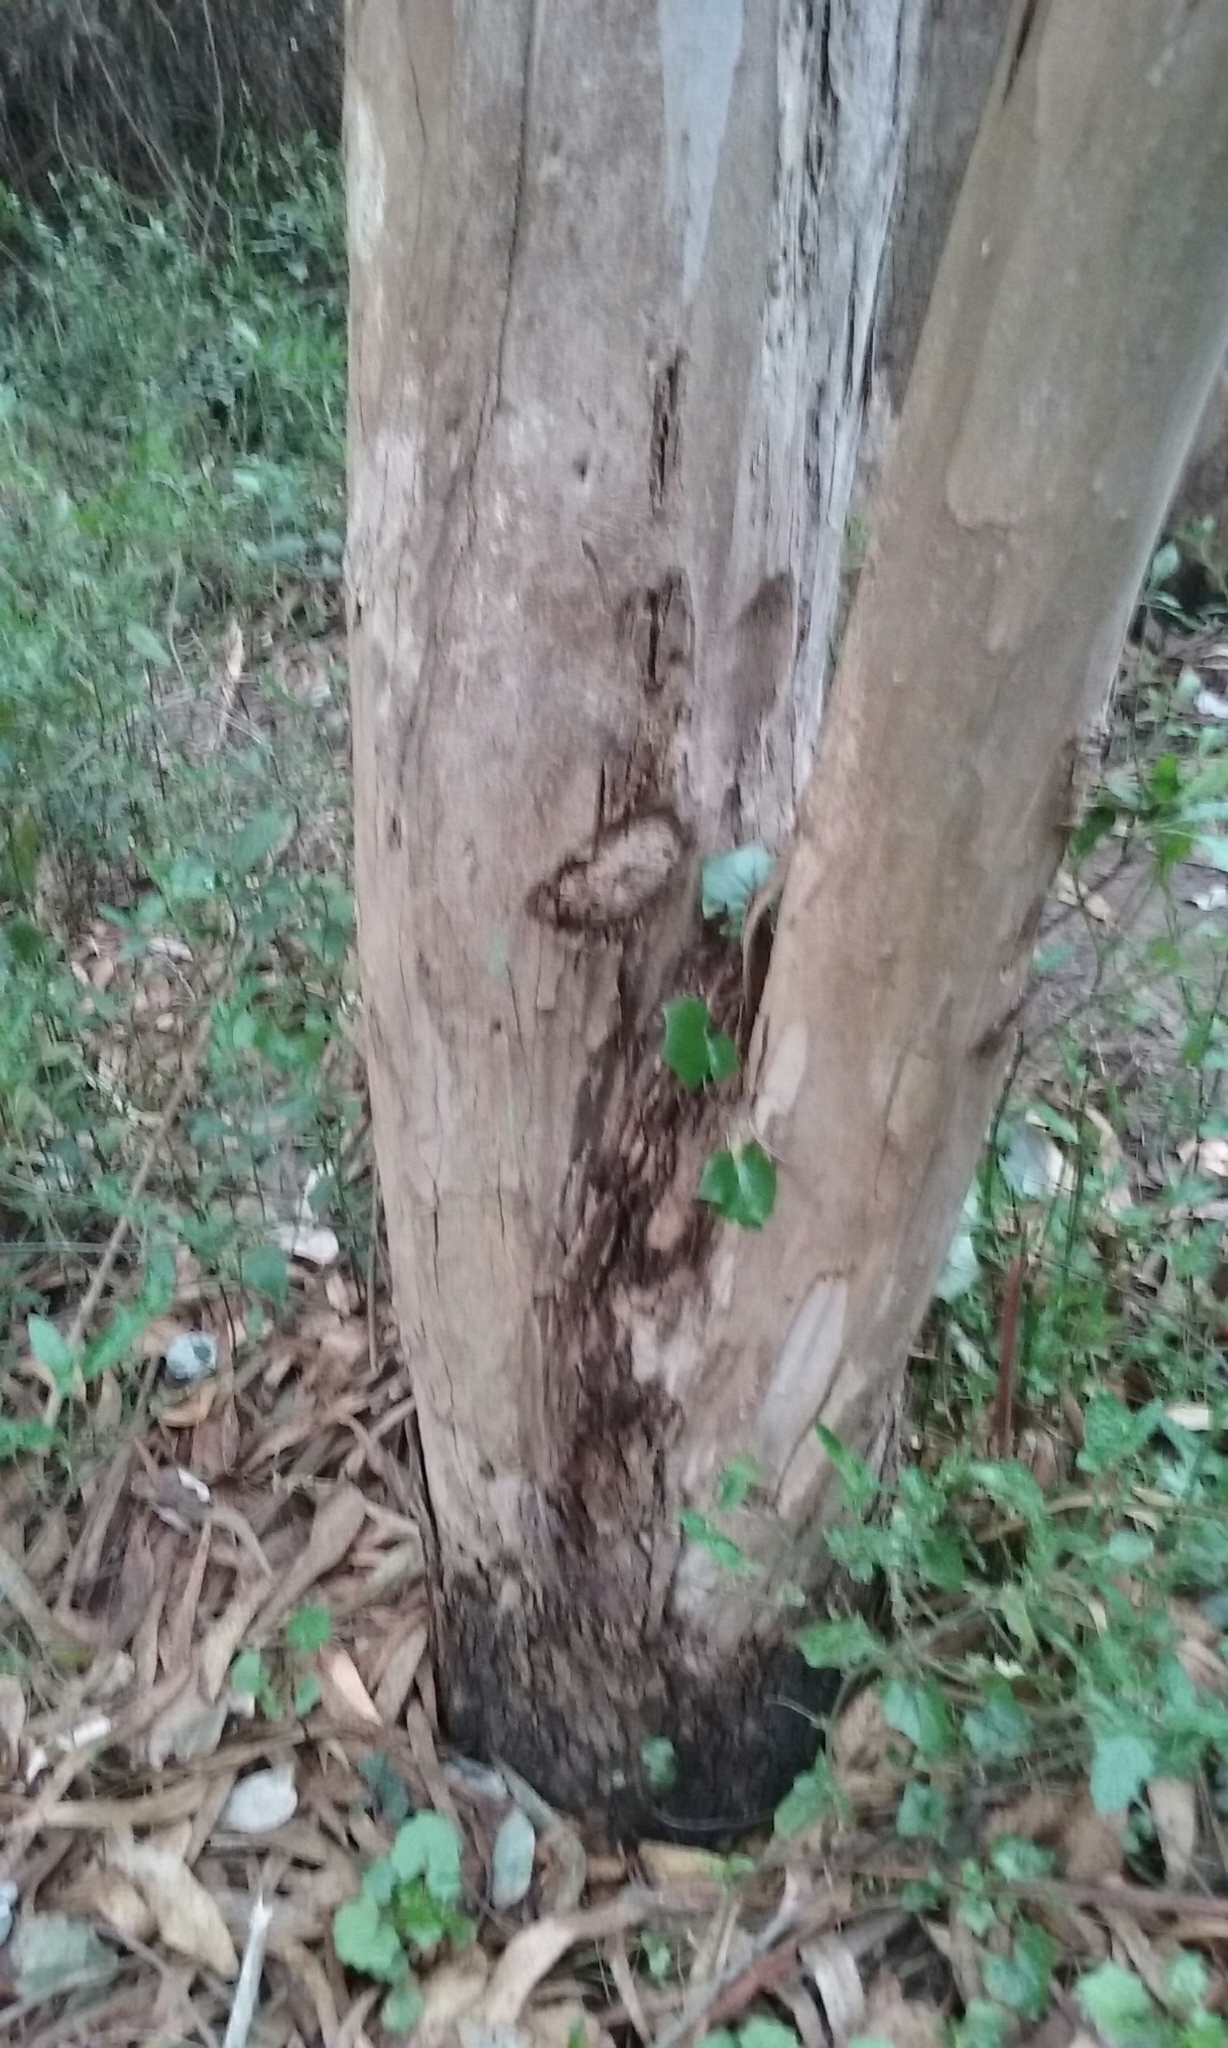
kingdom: Plantae
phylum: Tracheophyta
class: Magnoliopsida
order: Myrtales
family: Myrtaceae
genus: Eucalyptus
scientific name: Eucalyptus globulus
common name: Southern blue-gum
